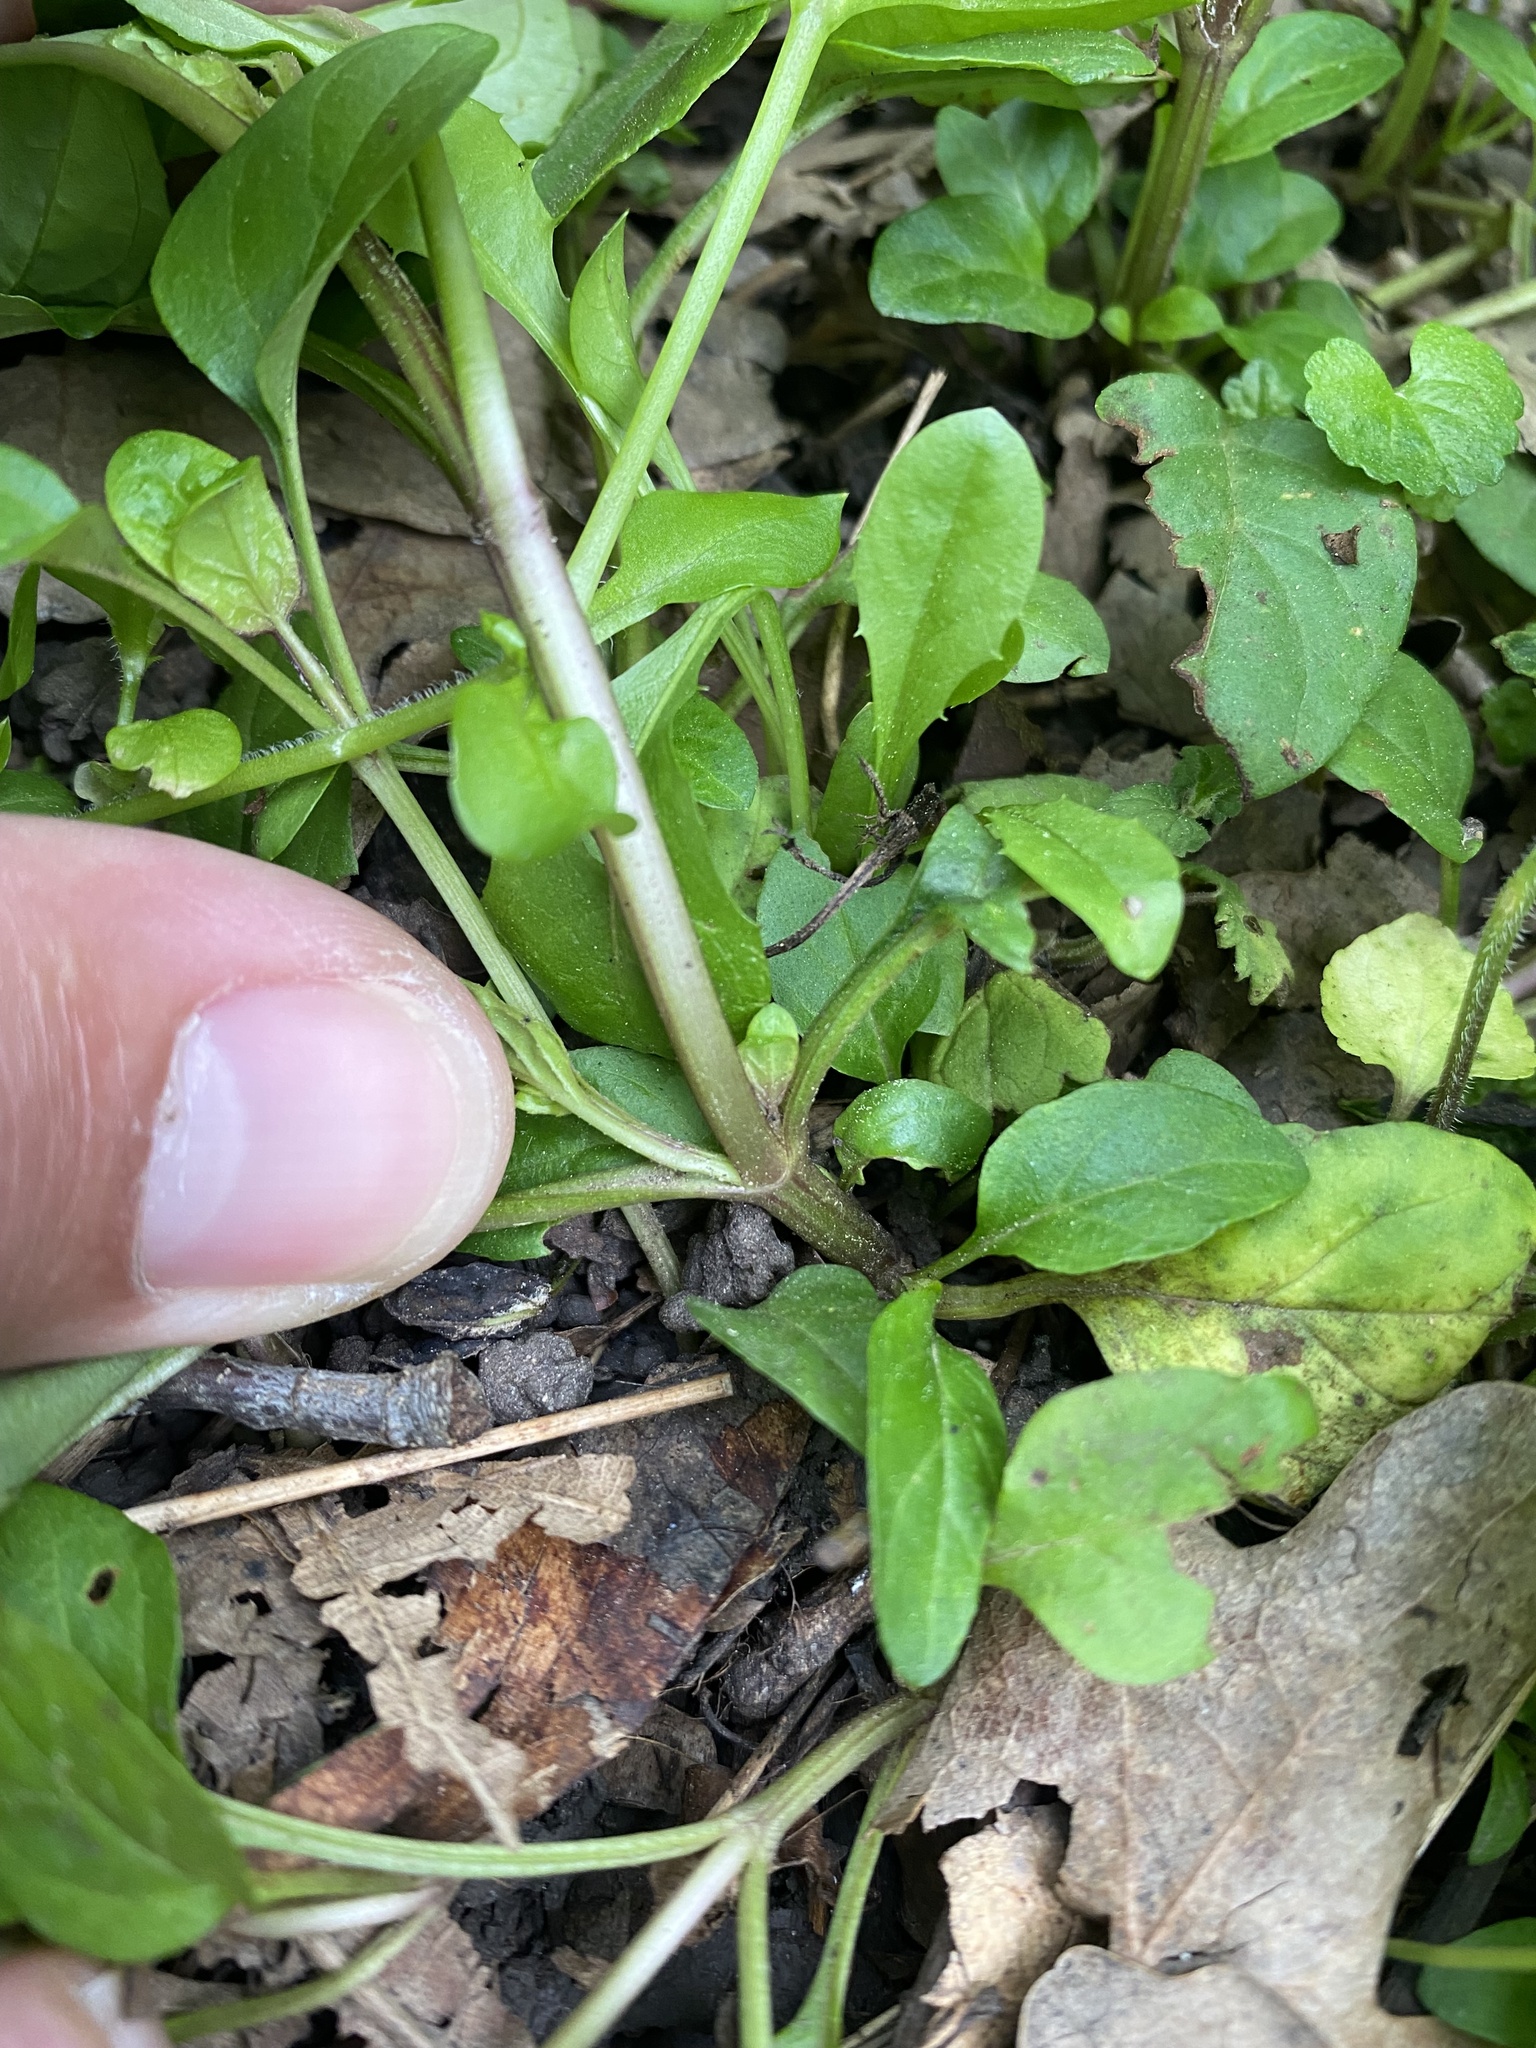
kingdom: Plantae
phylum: Tracheophyta
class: Magnoliopsida
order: Lamiales
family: Lamiaceae
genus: Prunella
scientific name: Prunella vulgaris
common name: Heal-all
